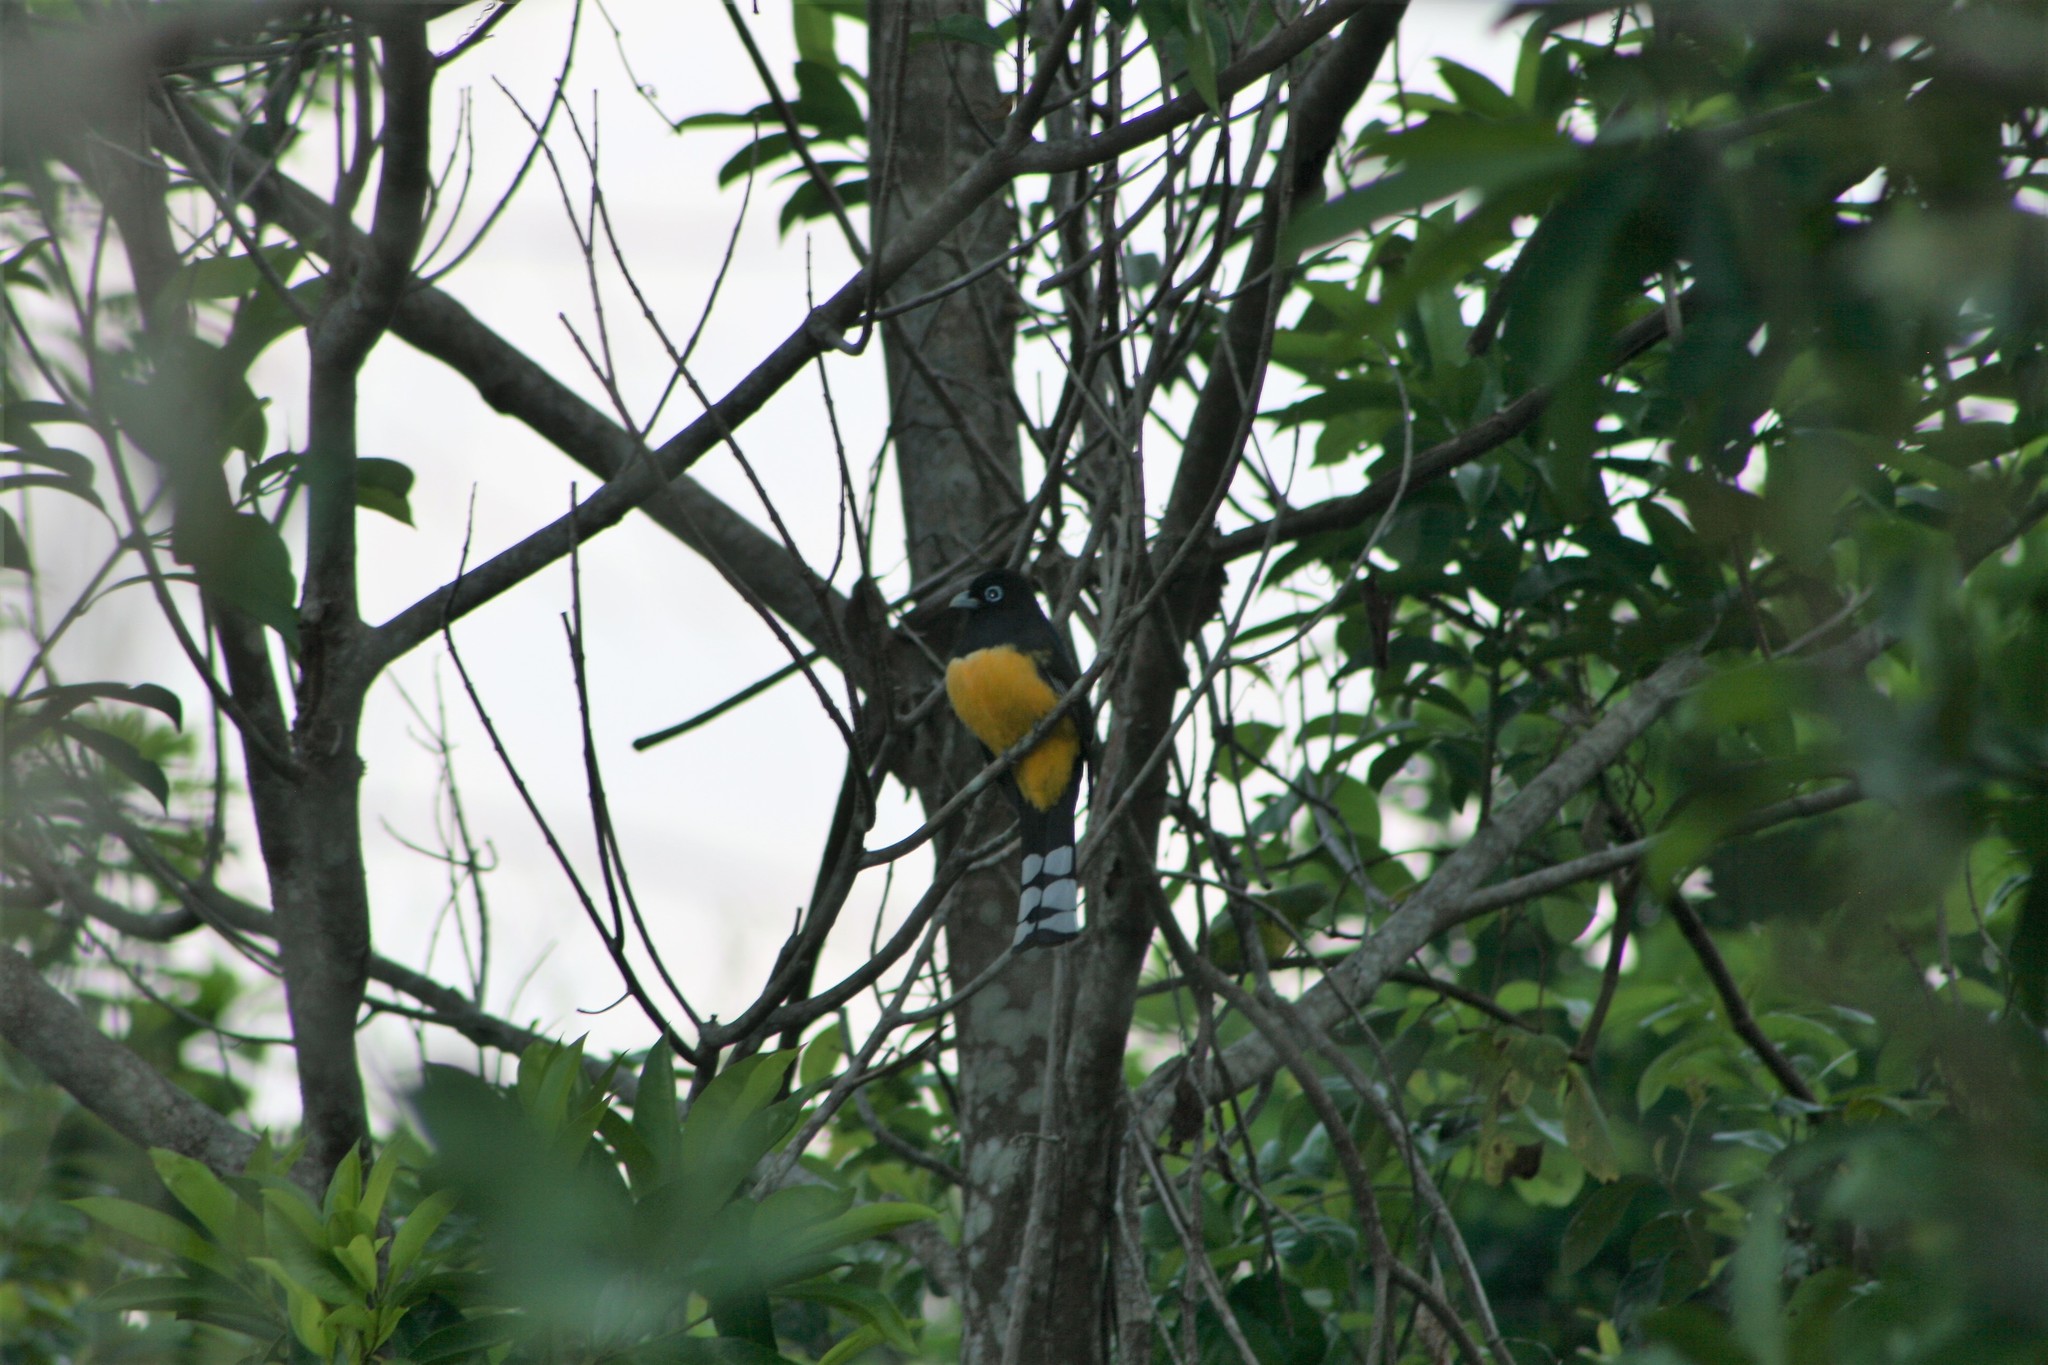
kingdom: Animalia
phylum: Chordata
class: Aves
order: Trogoniformes
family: Trogonidae
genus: Trogon
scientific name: Trogon melanocephalus
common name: Black-headed trogon
